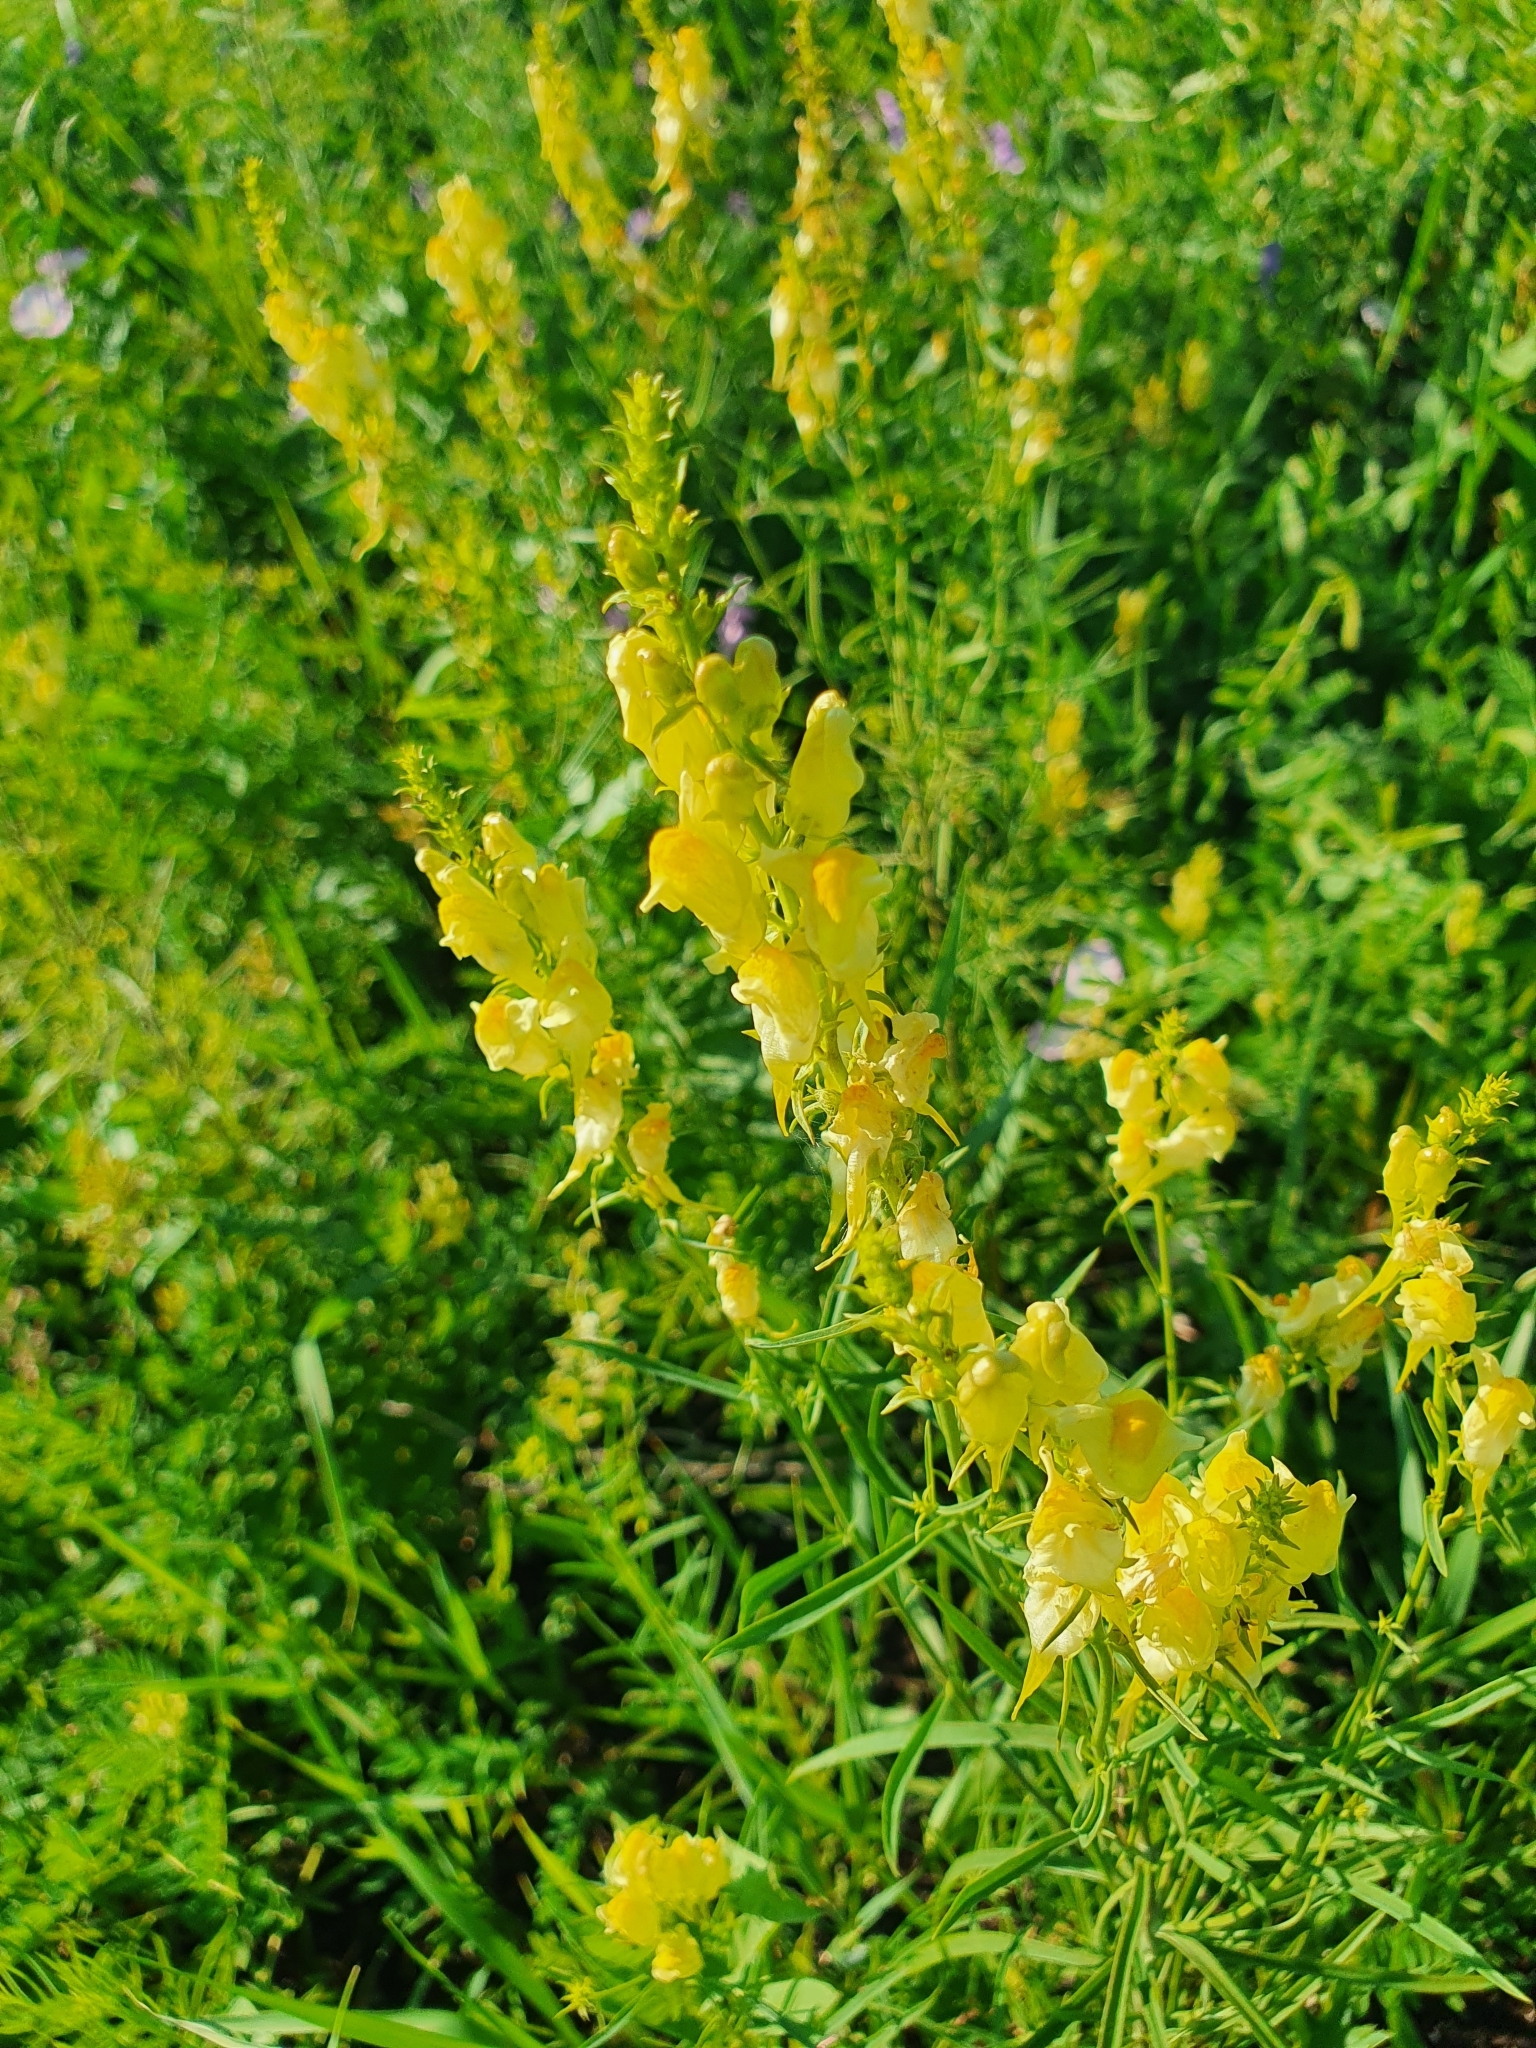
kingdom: Plantae
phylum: Tracheophyta
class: Magnoliopsida
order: Lamiales
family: Plantaginaceae
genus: Linaria
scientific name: Linaria vulgaris
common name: Butter and eggs
